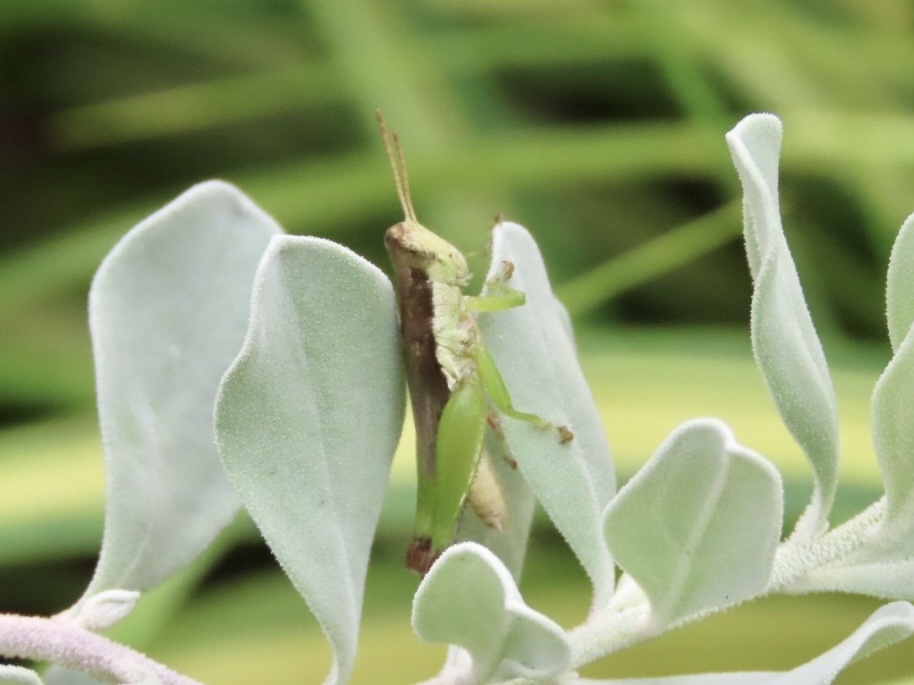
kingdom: Animalia
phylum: Arthropoda
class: Insecta
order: Orthoptera
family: Acrididae
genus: Pseudoxya
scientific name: Pseudoxya diminuta
